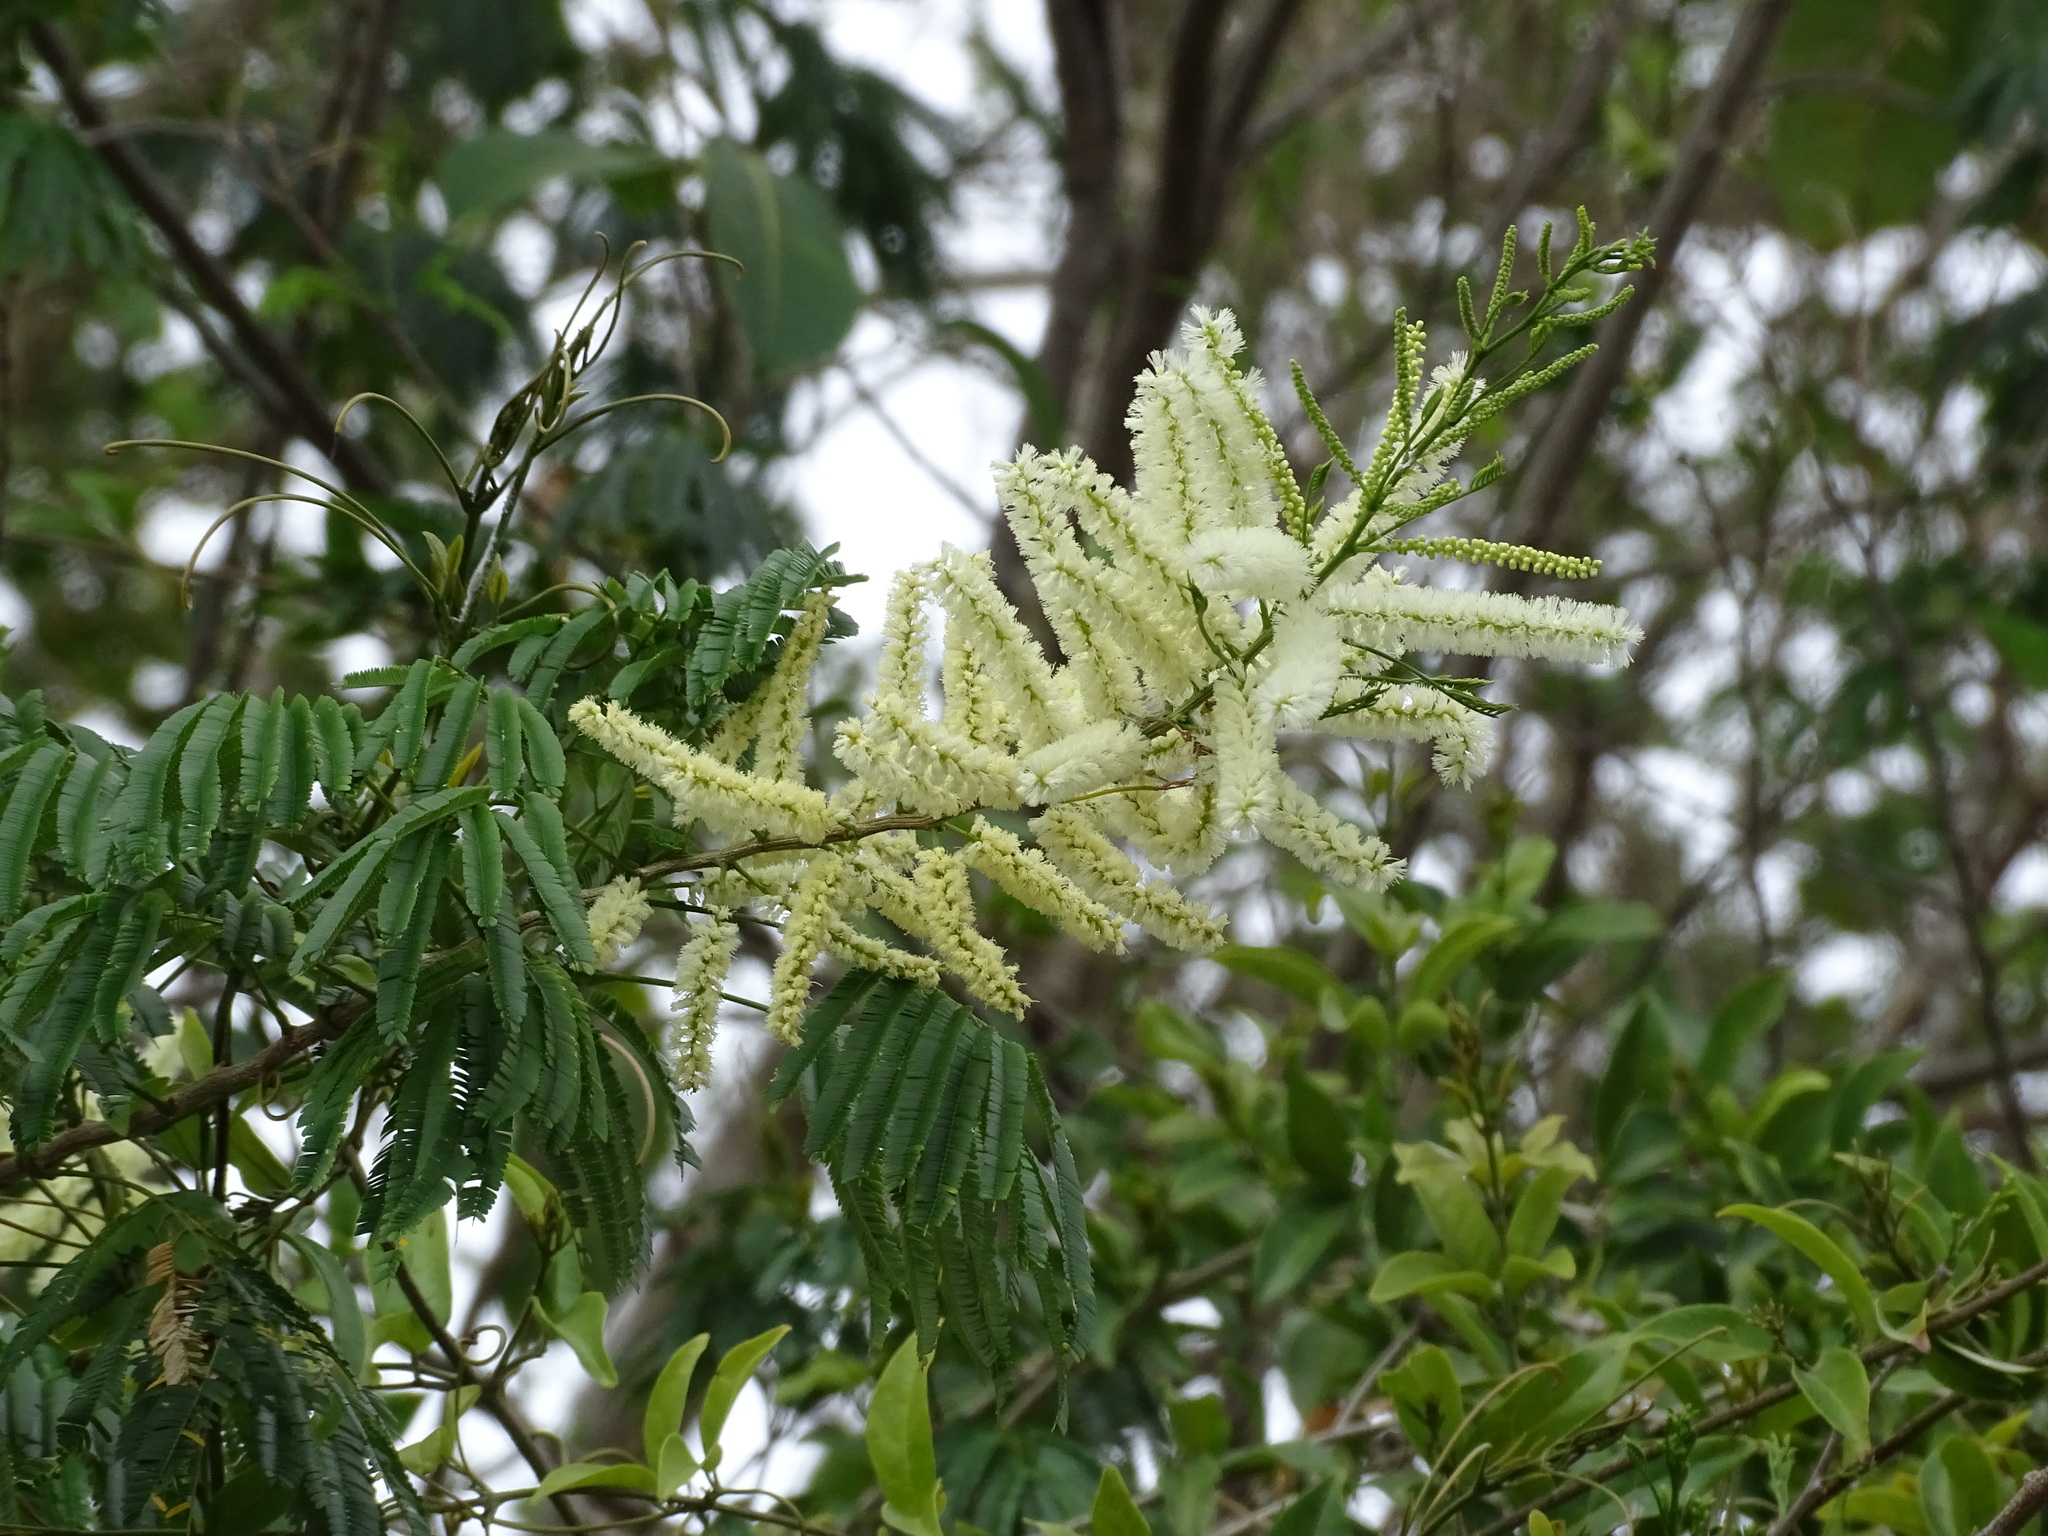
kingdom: Plantae
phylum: Tracheophyta
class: Magnoliopsida
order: Fabales
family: Fabaceae
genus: Mariosousa
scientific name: Mariosousa coulteri
